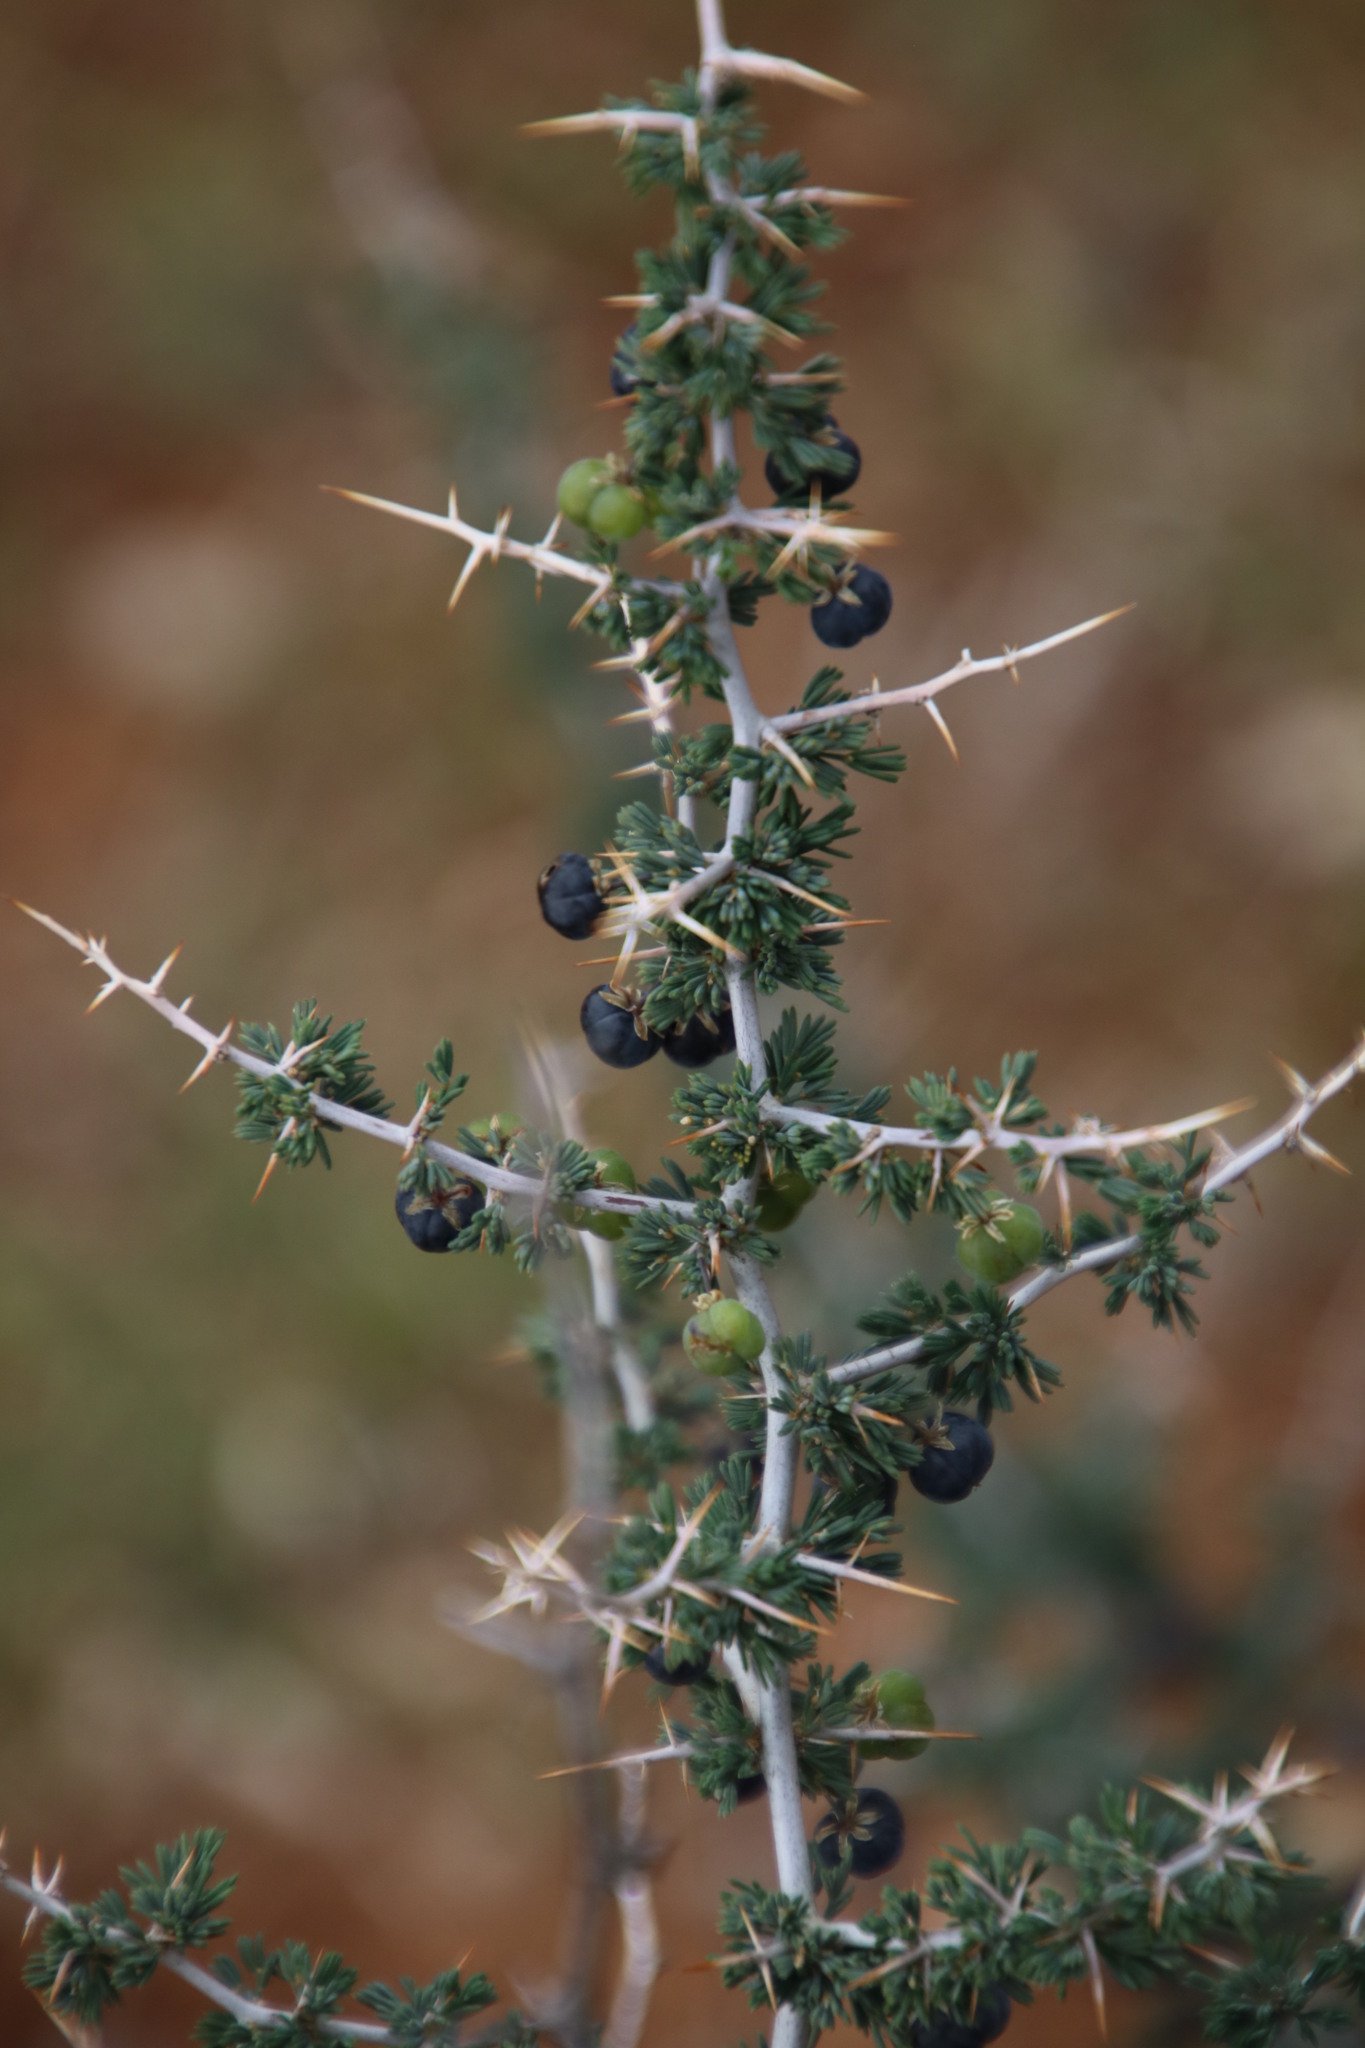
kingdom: Plantae
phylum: Tracheophyta
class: Liliopsida
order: Asparagales
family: Asparagaceae
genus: Asparagus
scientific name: Asparagus suaveolens
